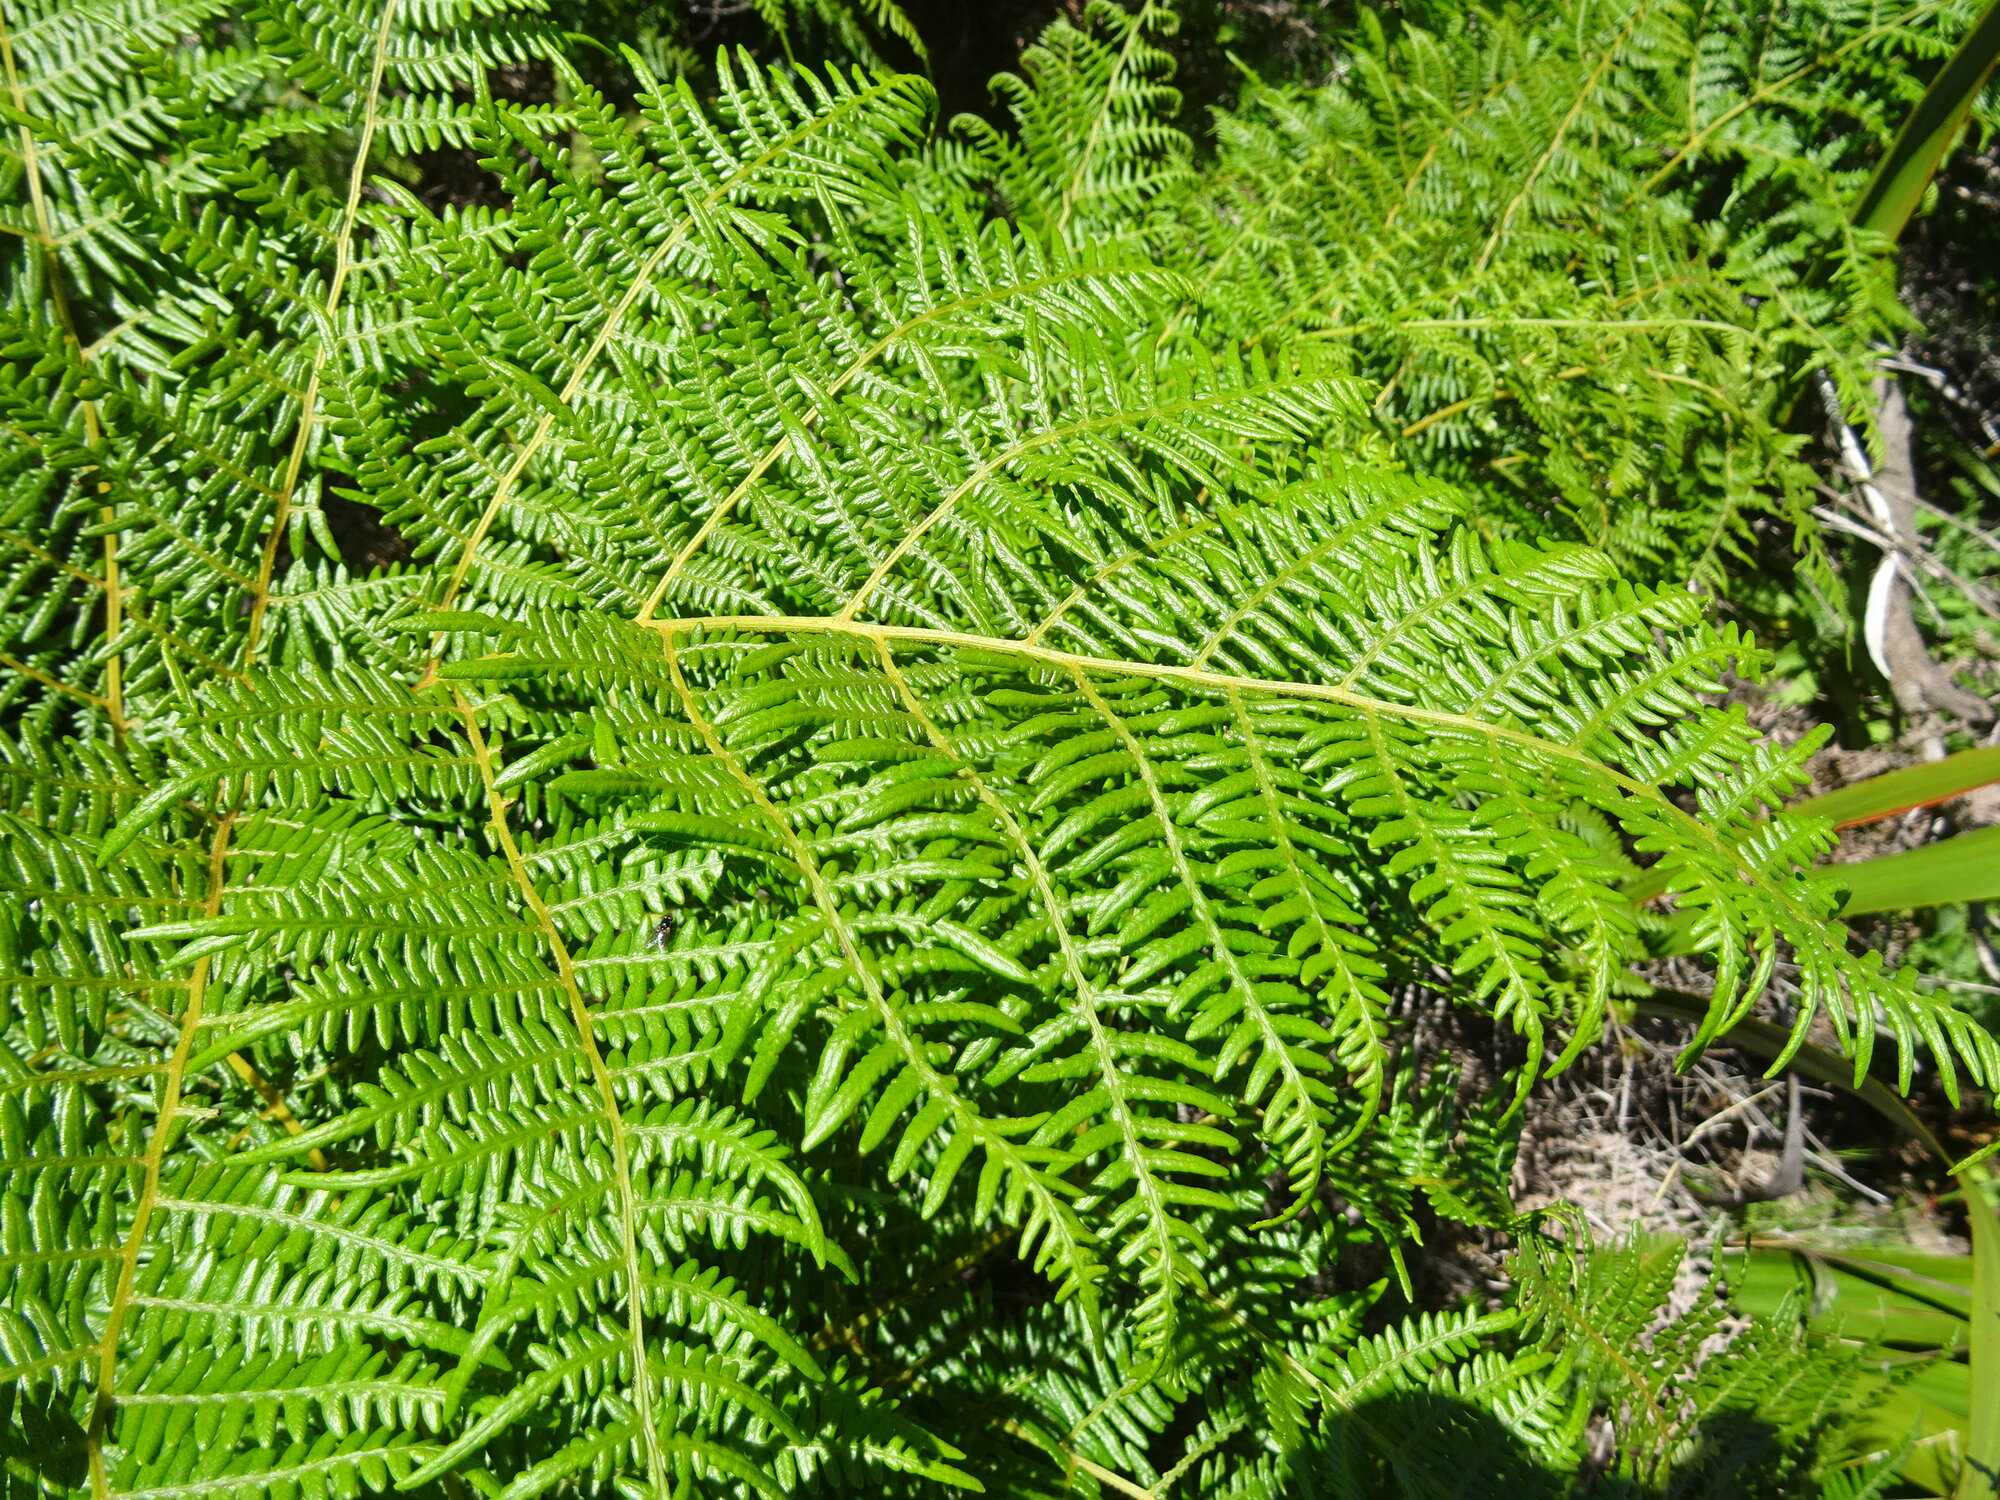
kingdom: Plantae
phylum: Tracheophyta
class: Polypodiopsida
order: Polypodiales
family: Dennstaedtiaceae
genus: Pteridium
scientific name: Pteridium aquilinum
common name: Bracken
